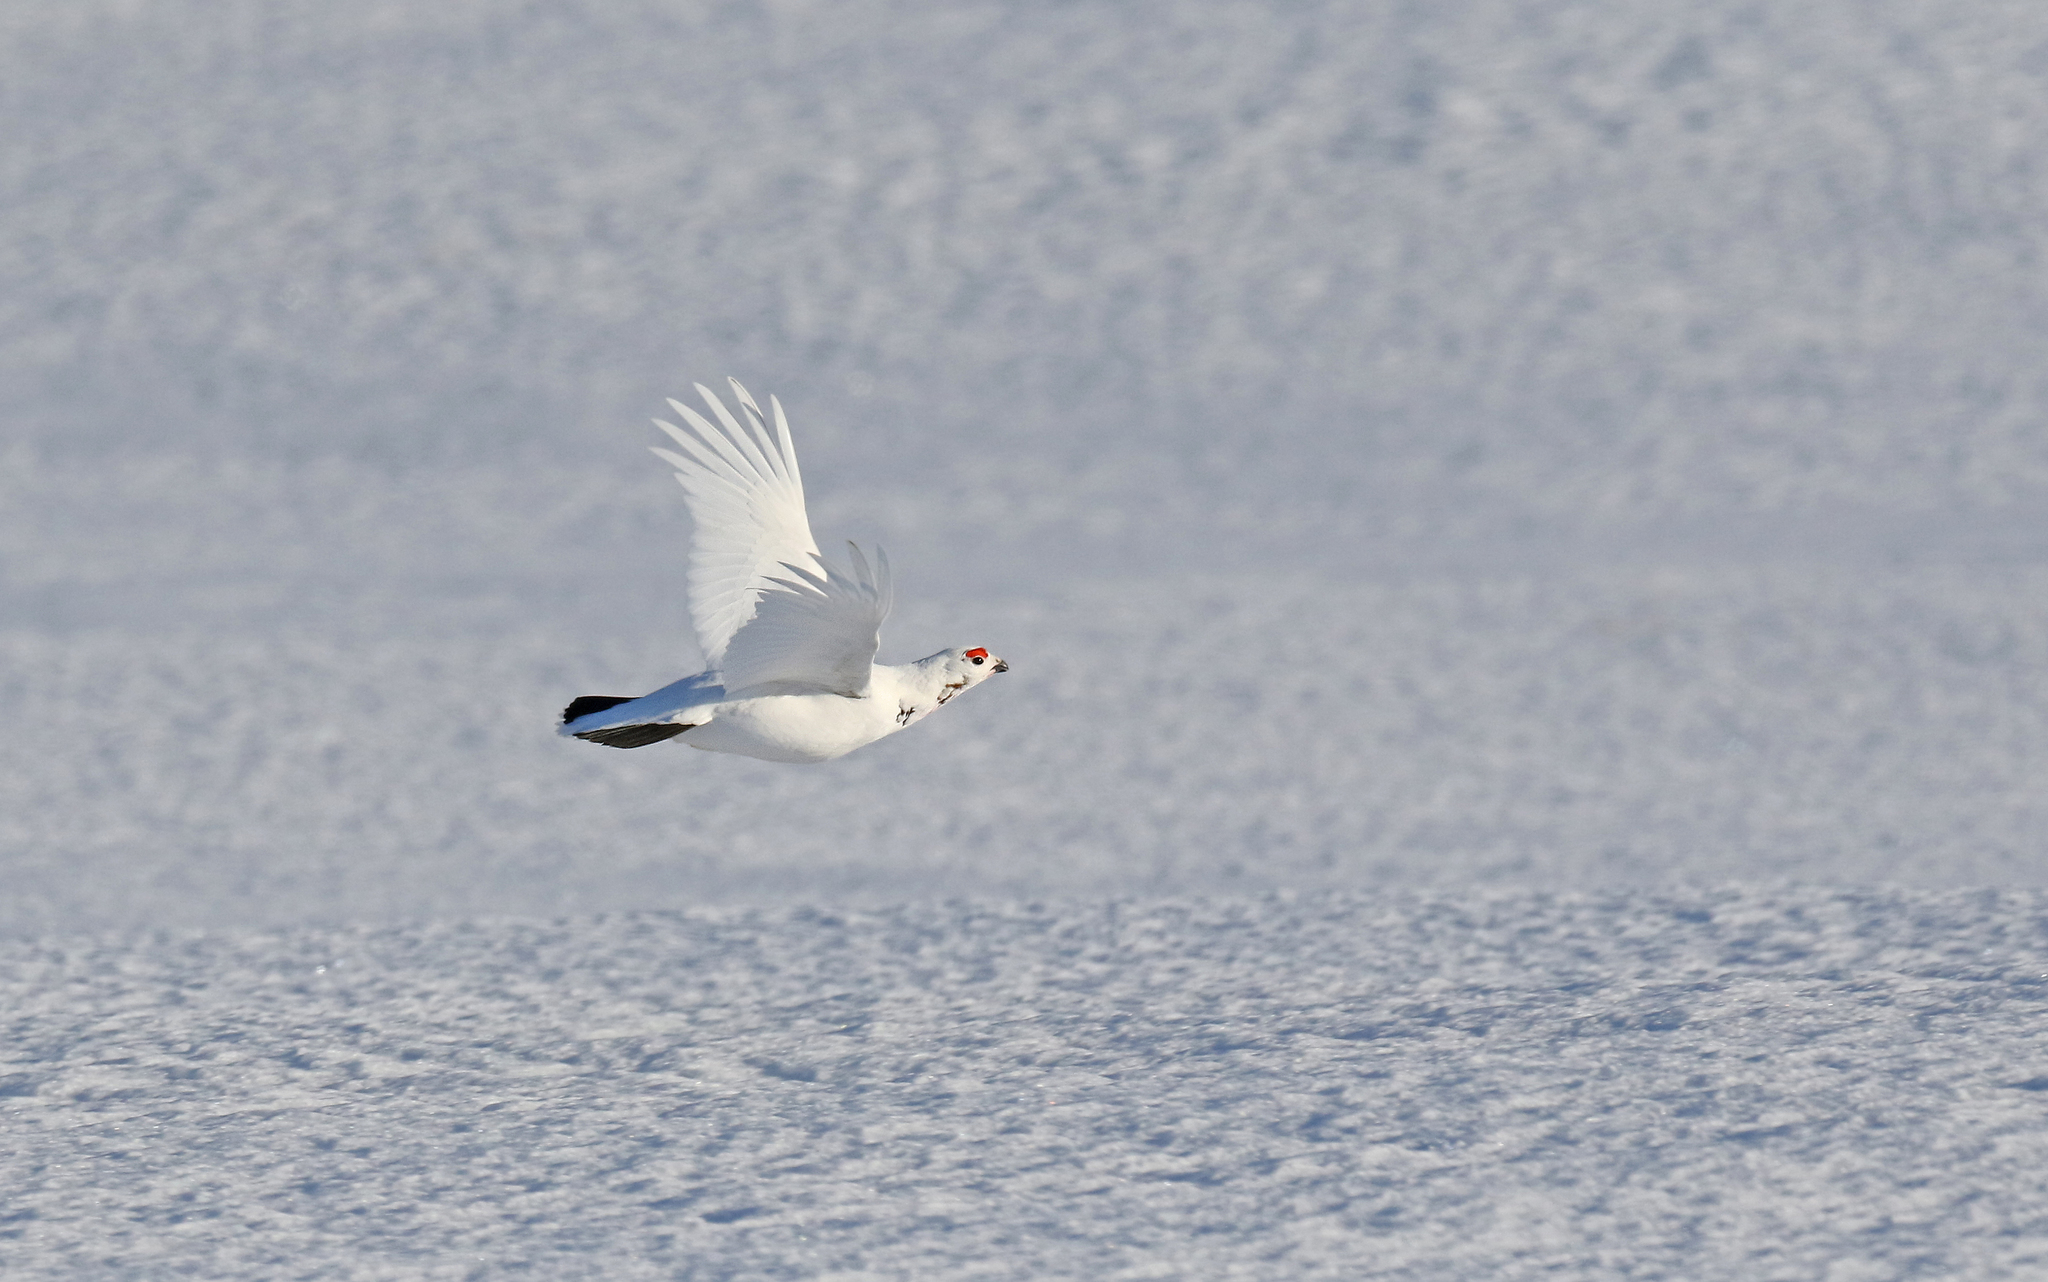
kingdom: Animalia
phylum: Chordata
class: Aves
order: Galliformes
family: Phasianidae
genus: Lagopus
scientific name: Lagopus lagopus
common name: Willow ptarmigan
